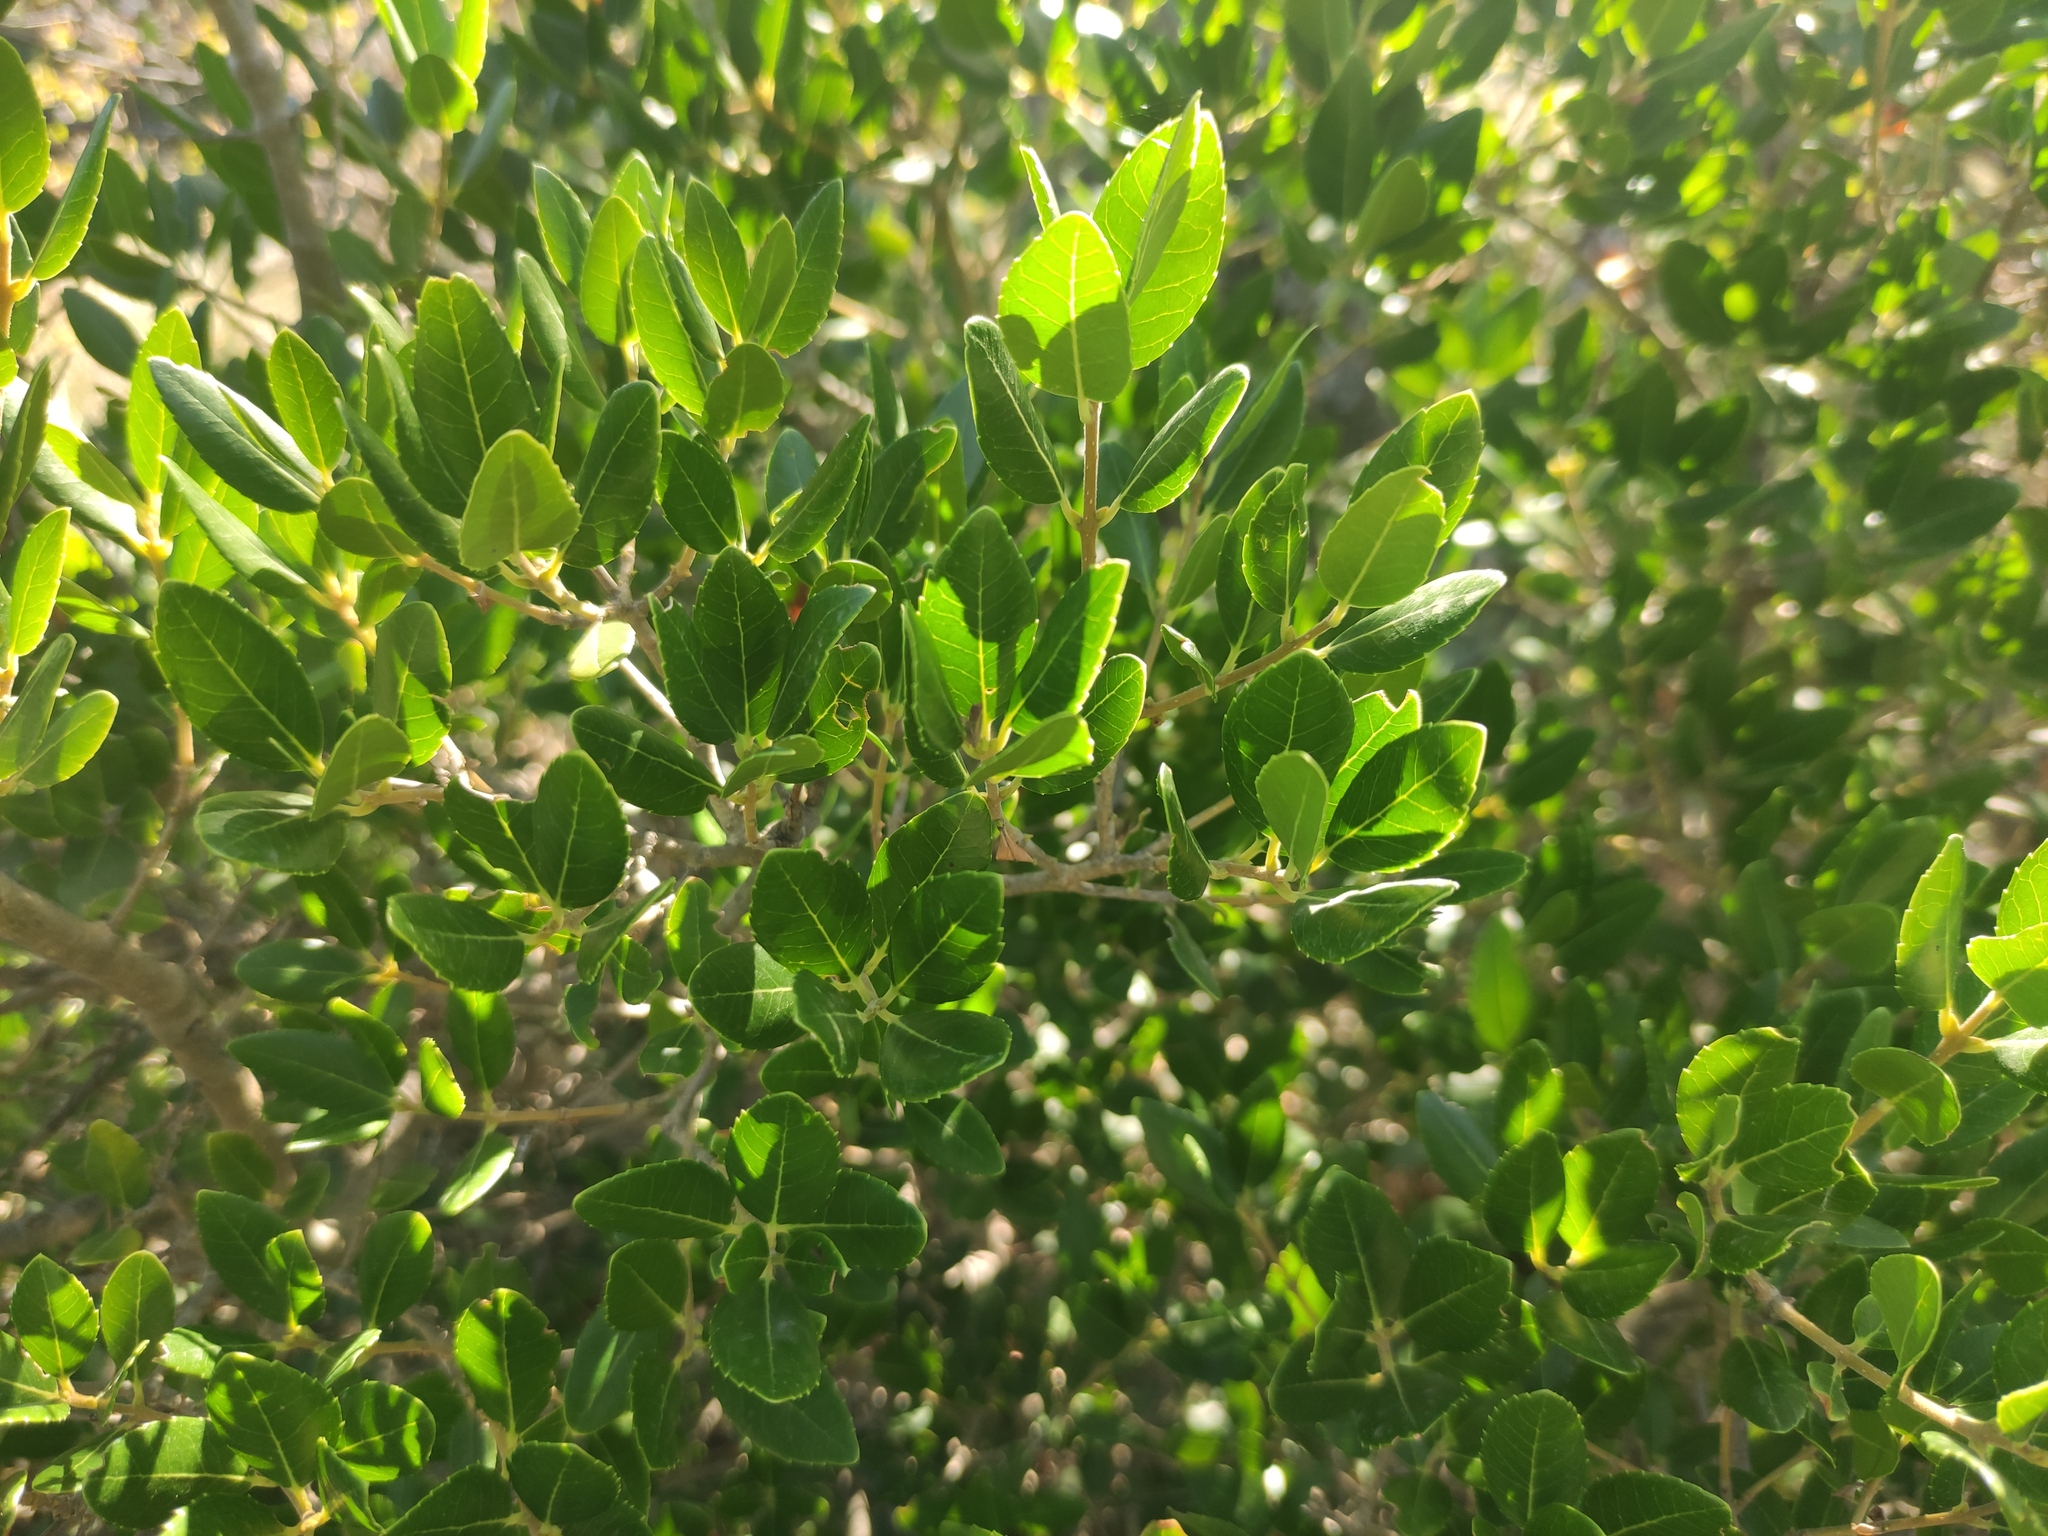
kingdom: Plantae
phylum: Tracheophyta
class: Magnoliopsida
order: Lamiales
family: Oleaceae
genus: Phillyrea
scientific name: Phillyrea latifolia
